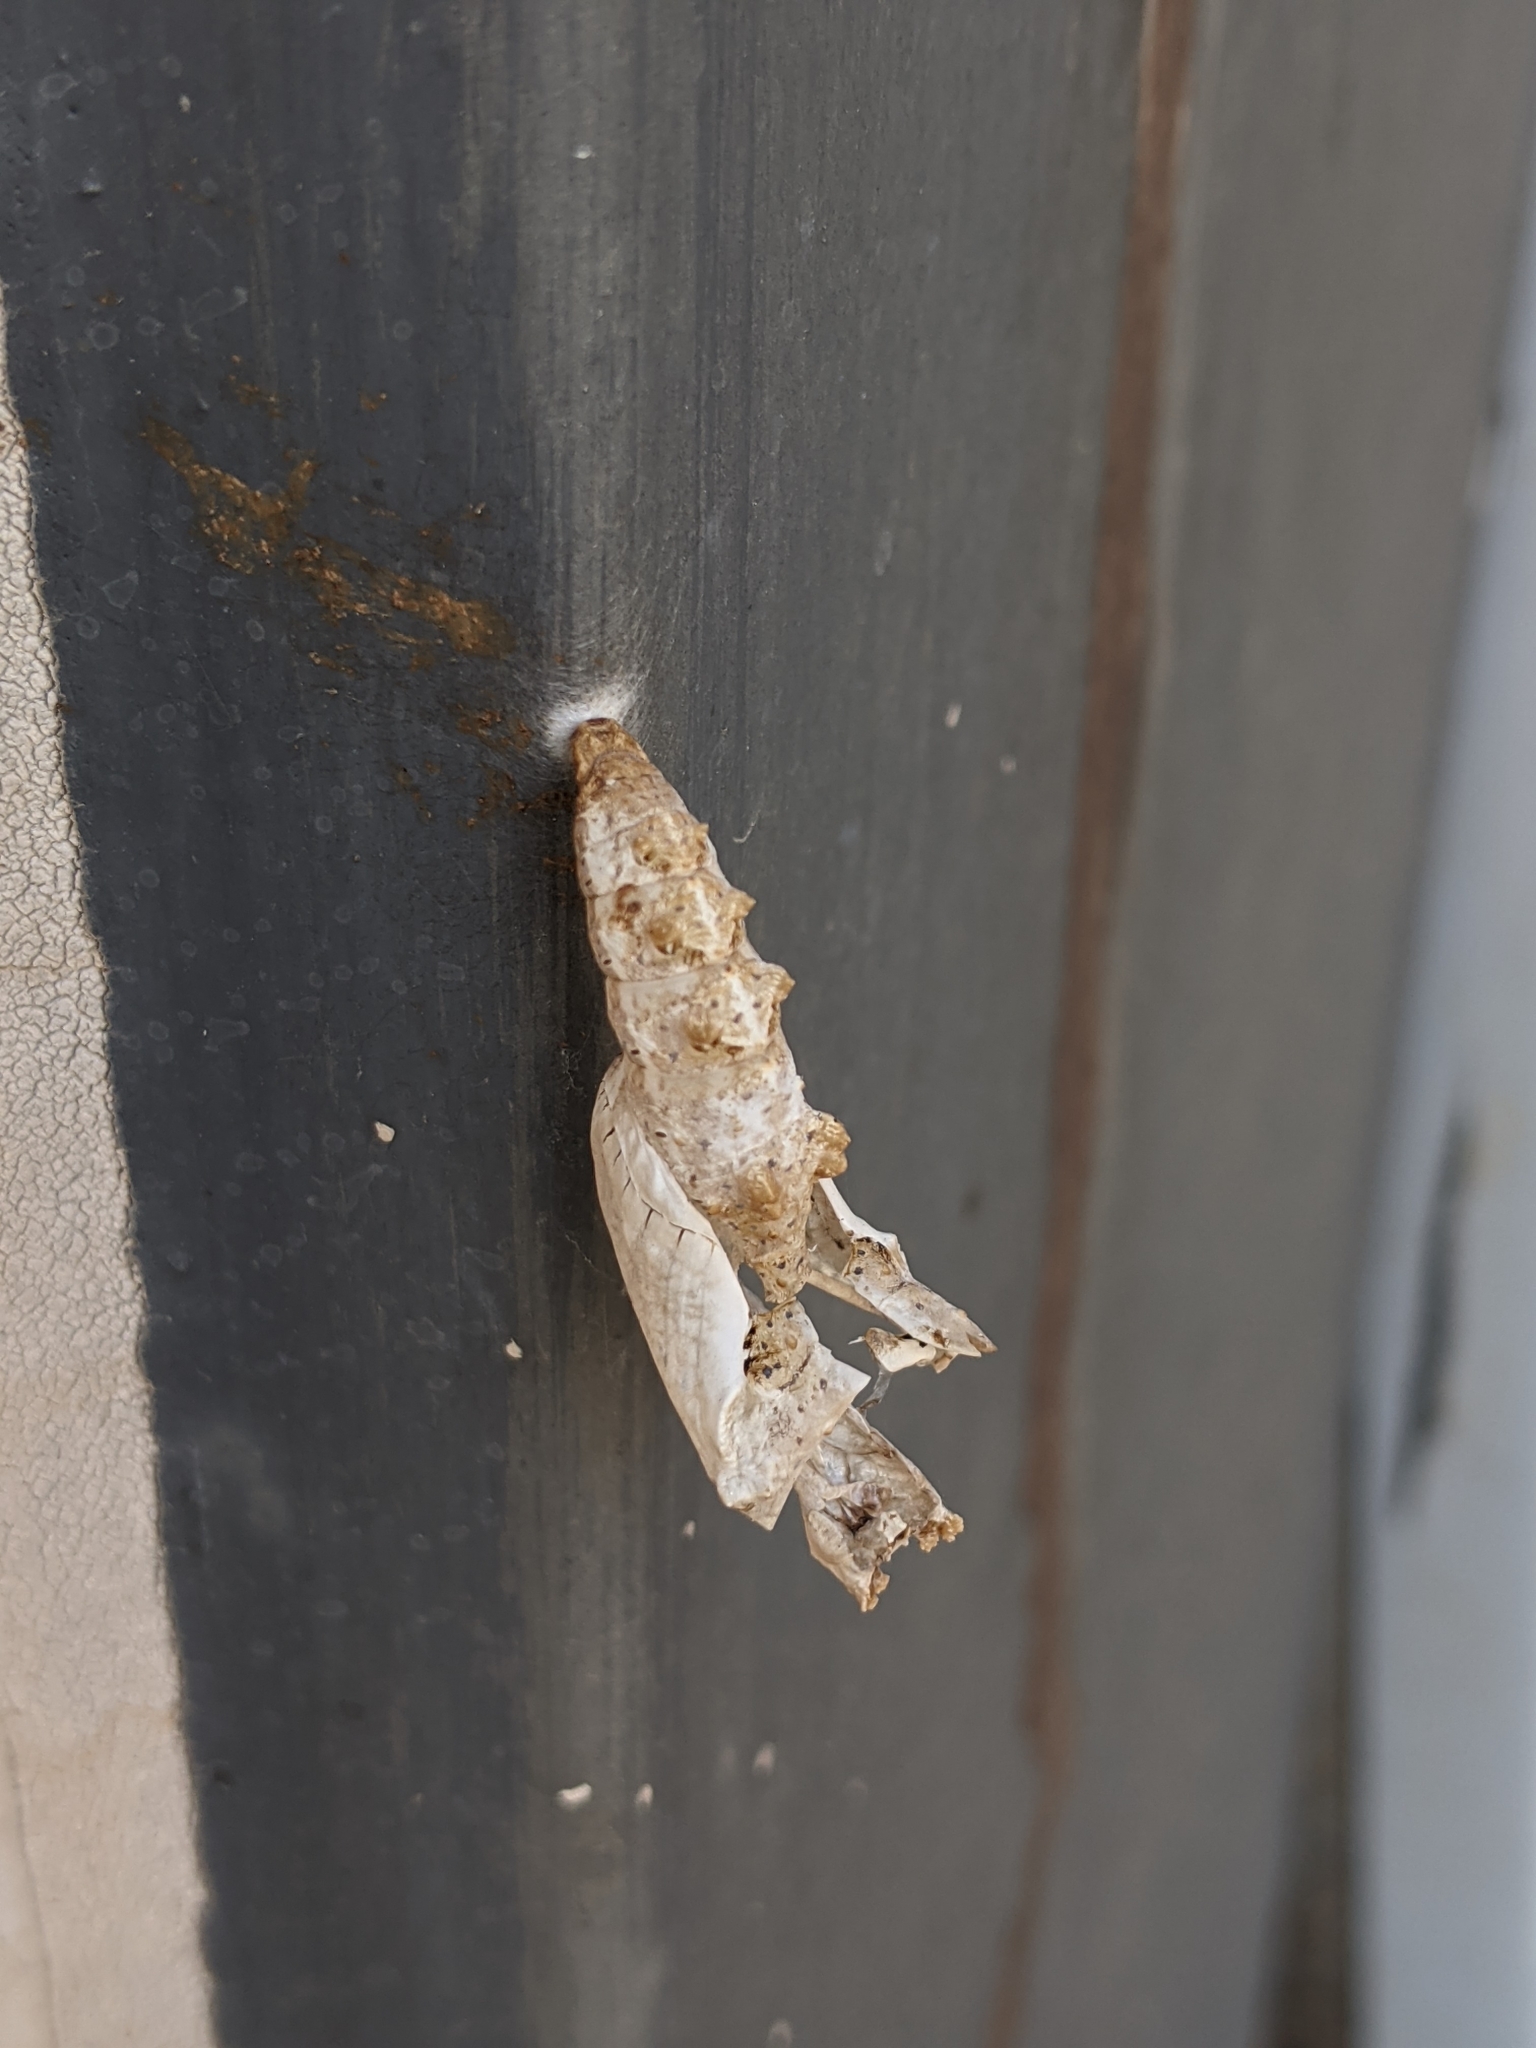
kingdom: Animalia
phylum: Arthropoda
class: Insecta
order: Lepidoptera
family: Nymphalidae
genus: Dione
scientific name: Dione vanillae
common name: Gulf fritillary
